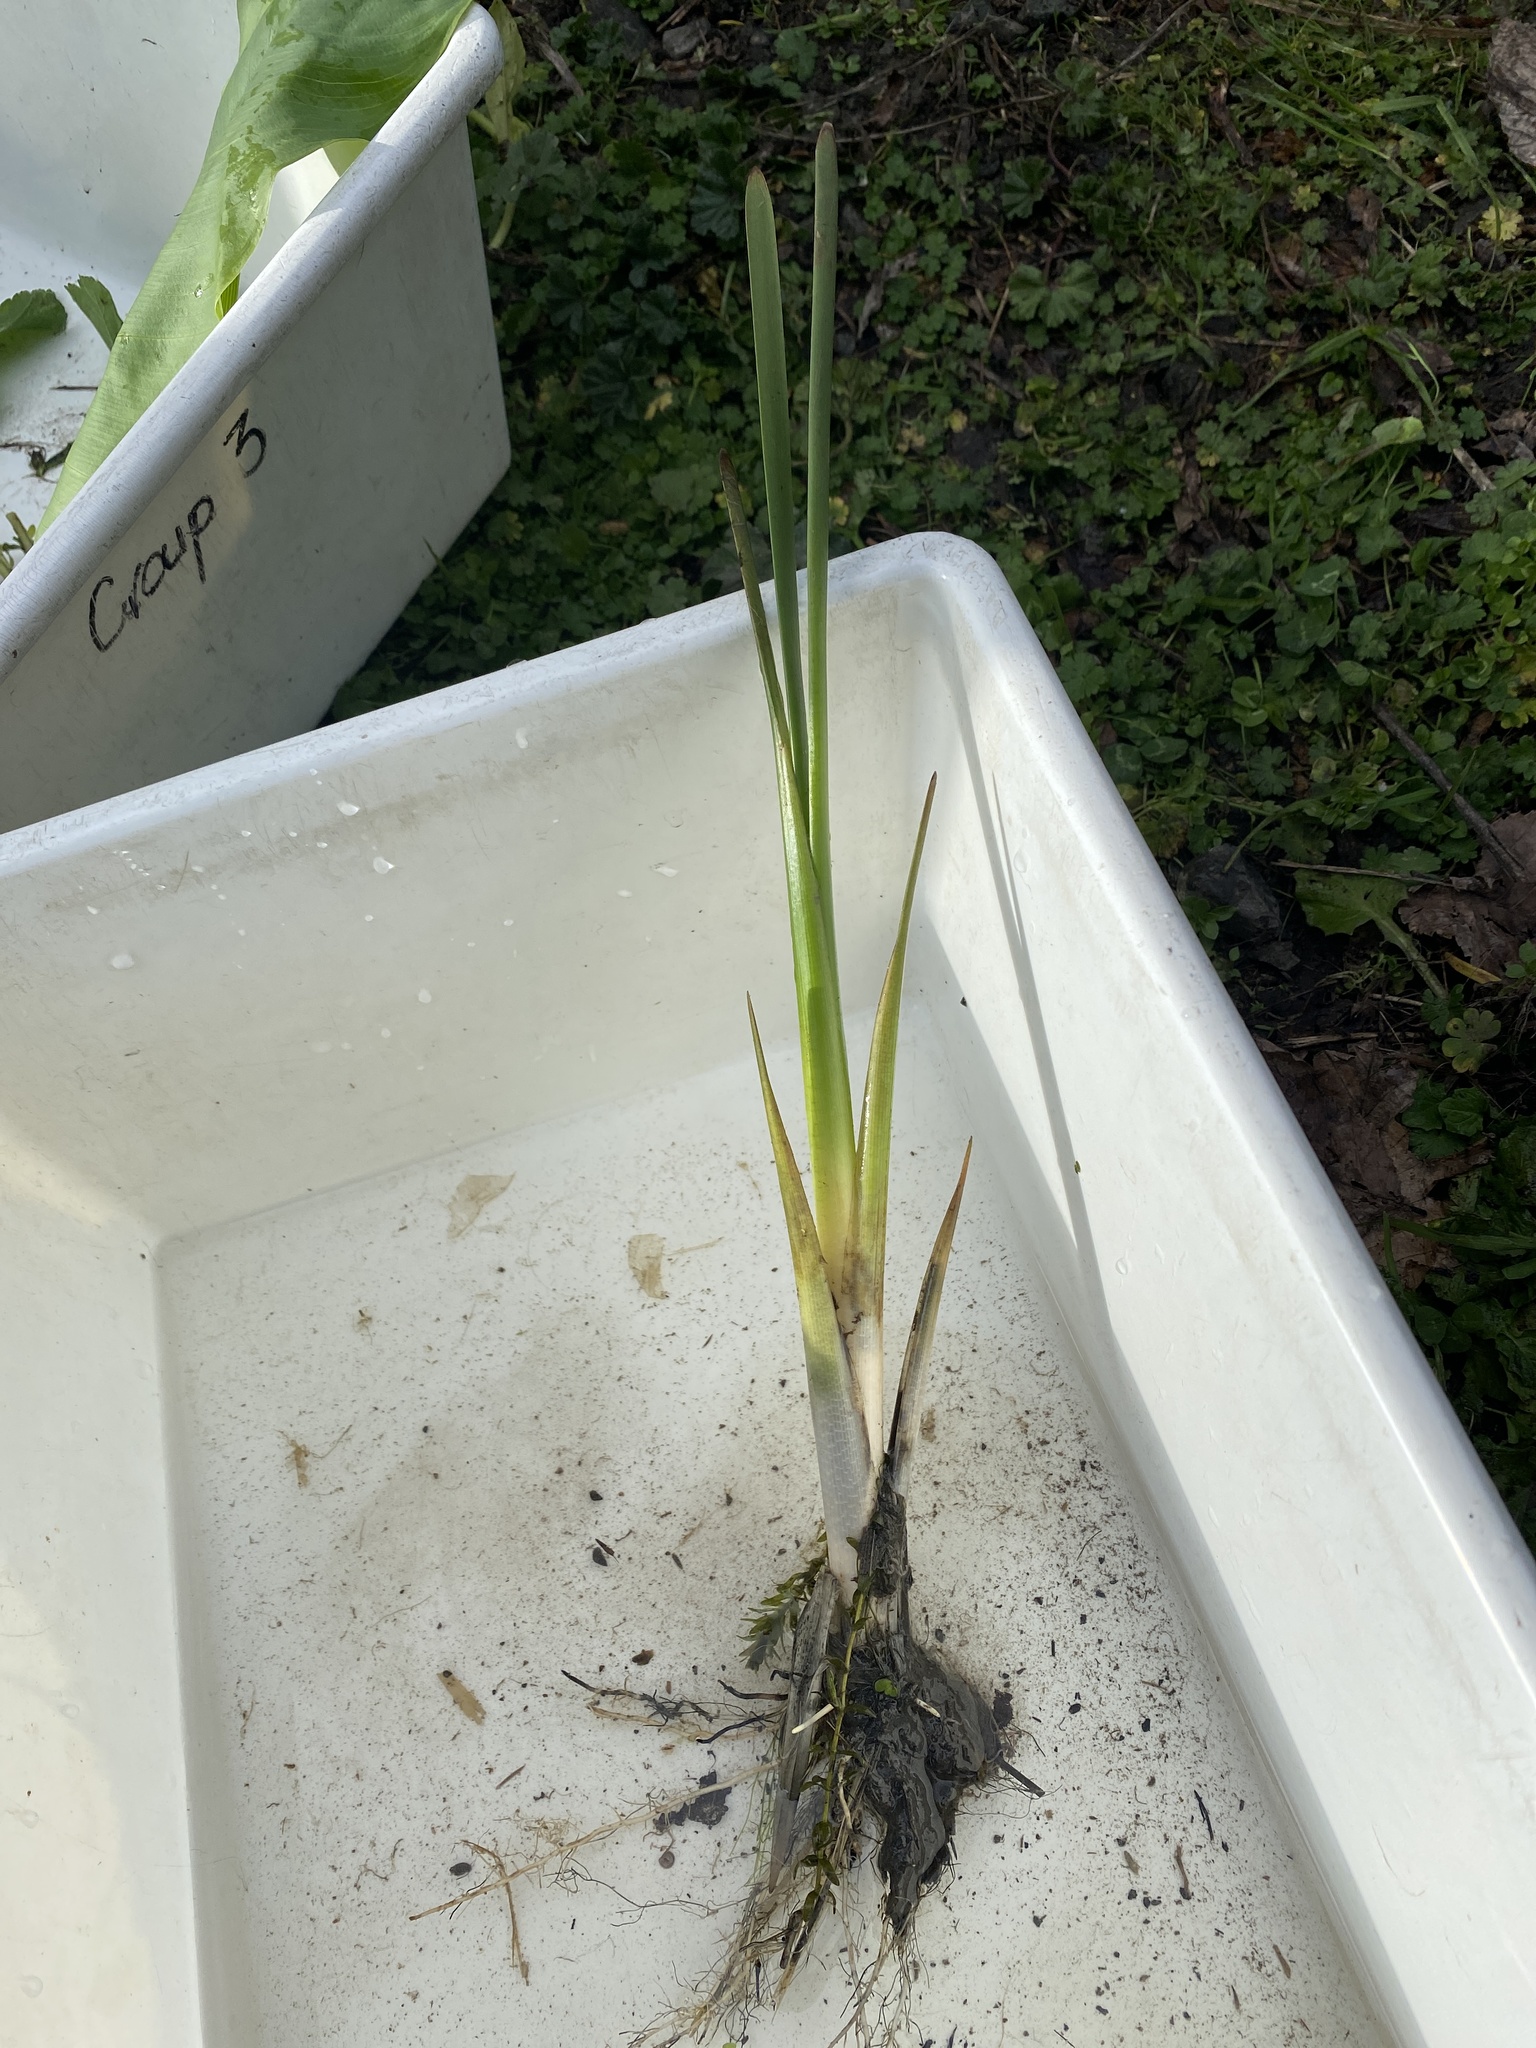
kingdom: Plantae
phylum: Tracheophyta
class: Liliopsida
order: Poales
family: Typhaceae
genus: Typha
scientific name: Typha orientalis
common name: Bullrush
